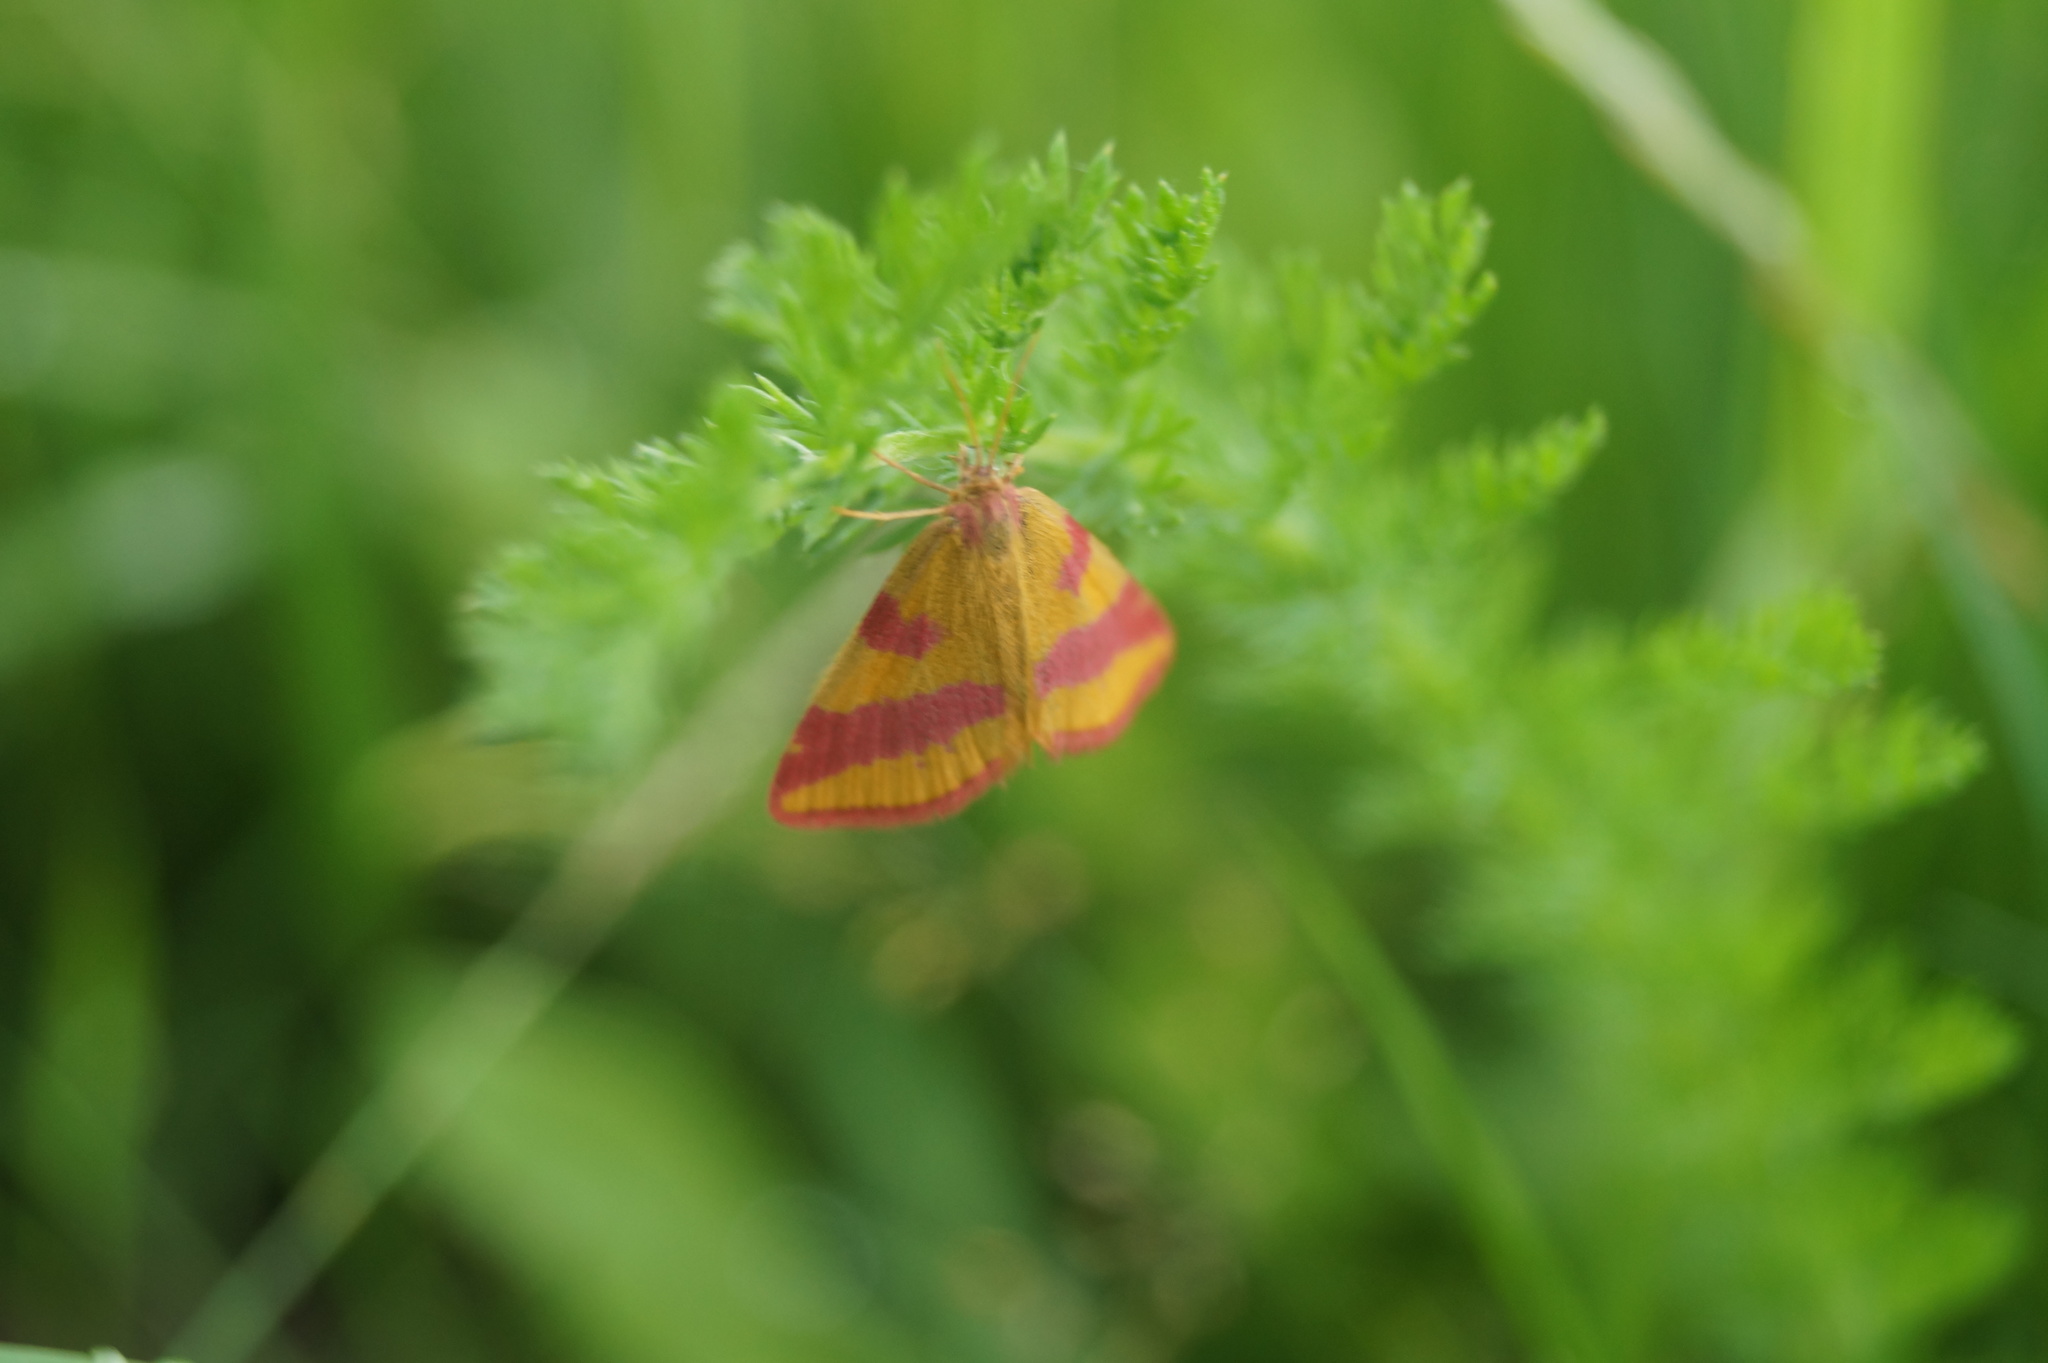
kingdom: Animalia
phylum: Arthropoda
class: Insecta
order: Lepidoptera
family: Geometridae
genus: Lythria
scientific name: Lythria cruentaria
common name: Purple-barred yellow
